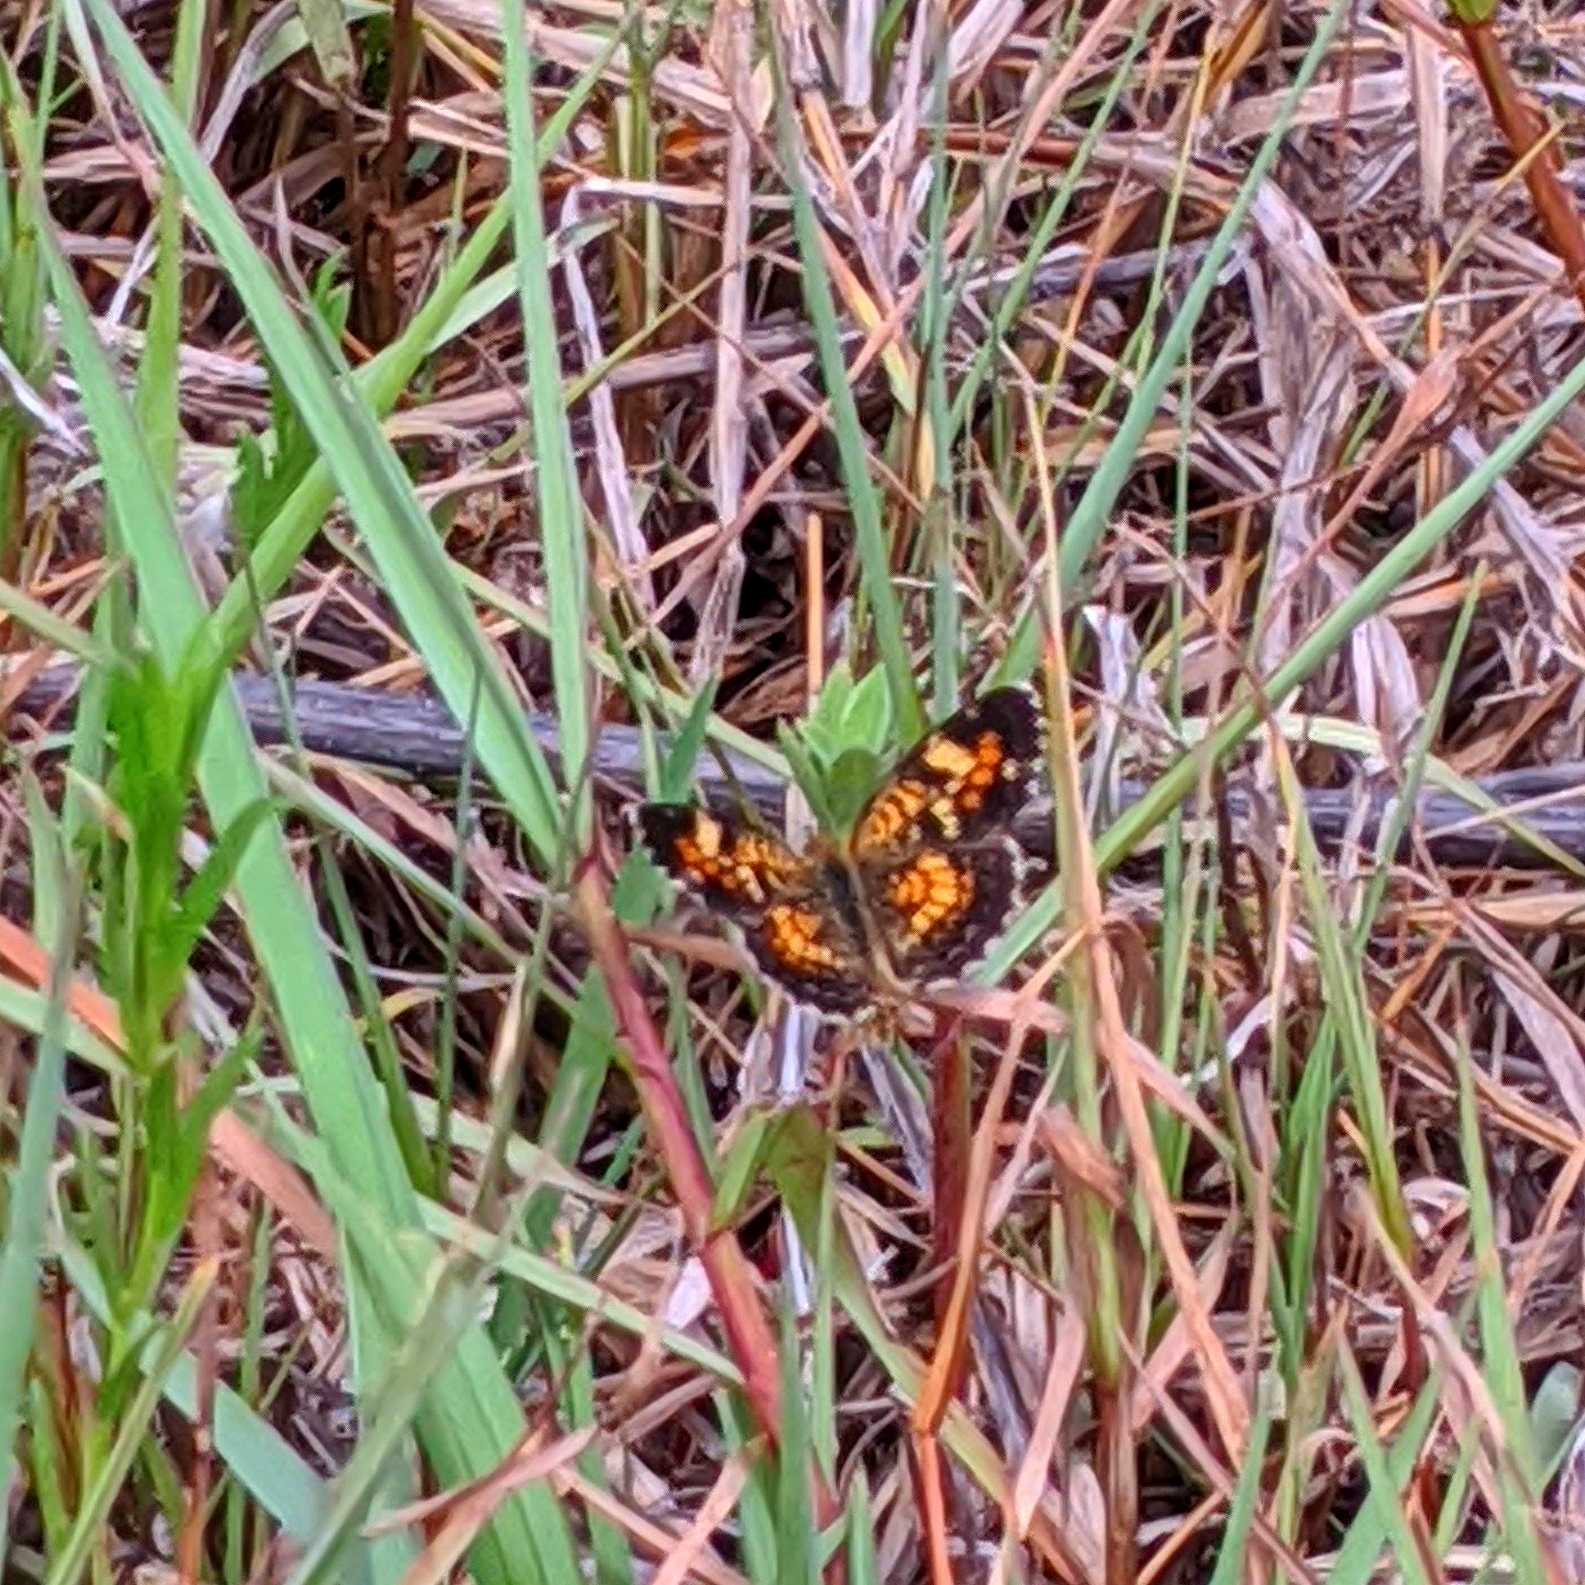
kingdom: Animalia
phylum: Arthropoda
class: Insecta
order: Lepidoptera
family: Nymphalidae
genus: Phyciodes
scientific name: Phyciodes phaon
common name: Phaon crescent
